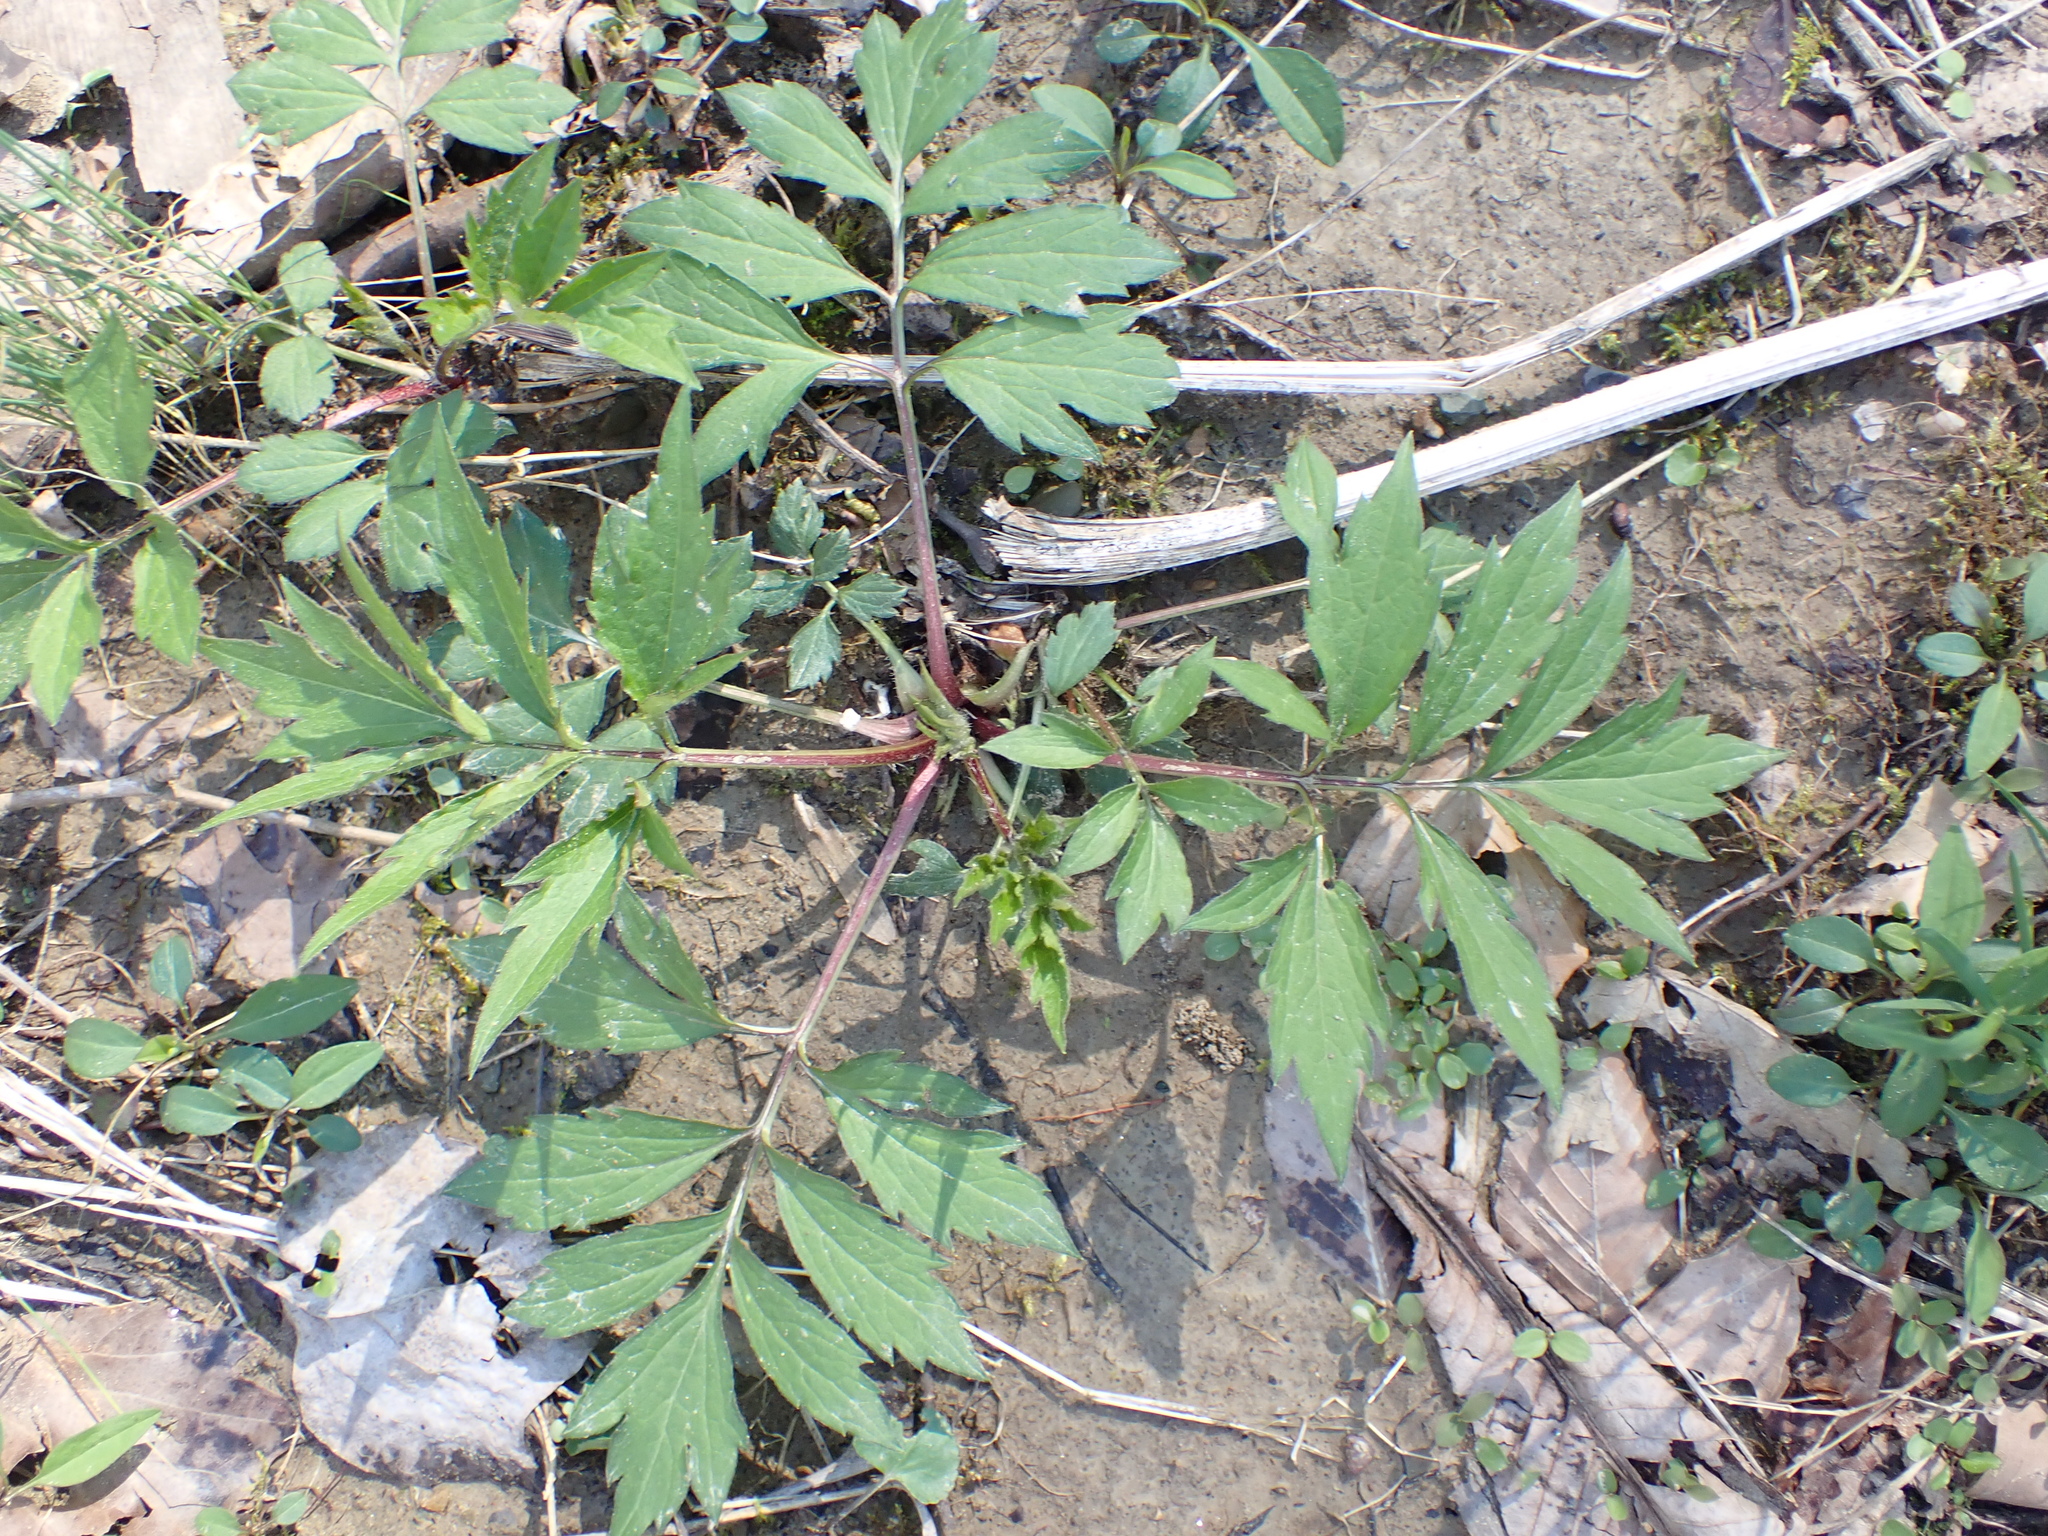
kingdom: Plantae
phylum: Tracheophyta
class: Magnoliopsida
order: Asterales
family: Asteraceae
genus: Rudbeckia
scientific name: Rudbeckia laciniata
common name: Coneflower
